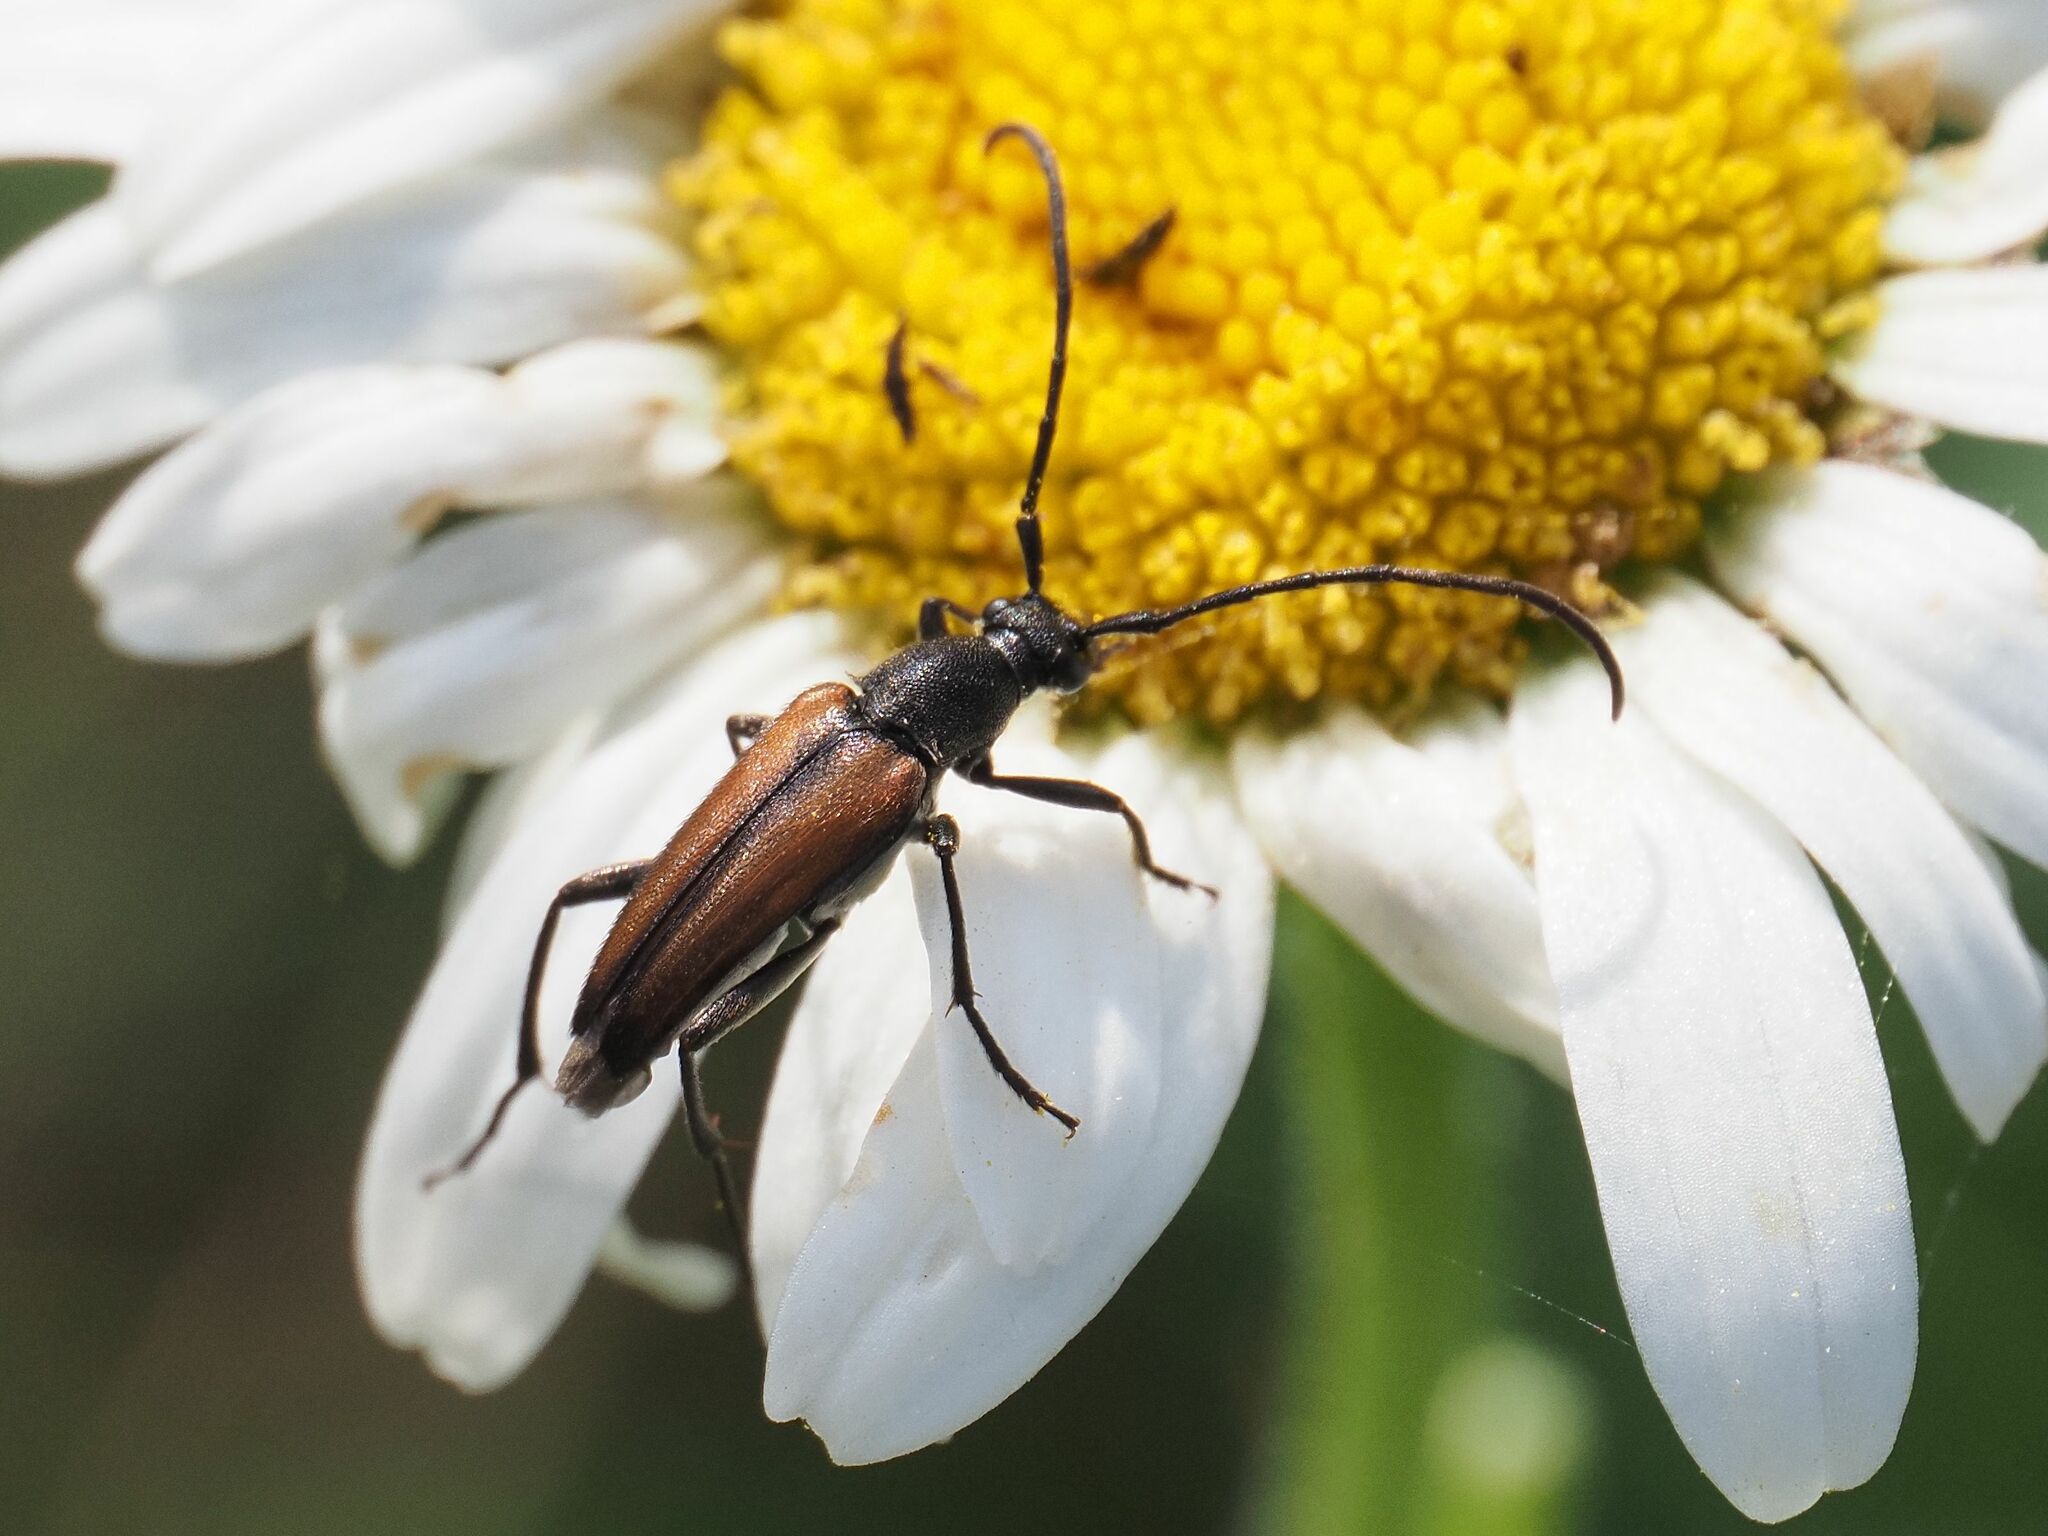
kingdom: Animalia
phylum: Arthropoda
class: Insecta
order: Coleoptera
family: Cerambycidae
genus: Stenurella
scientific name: Stenurella melanura
